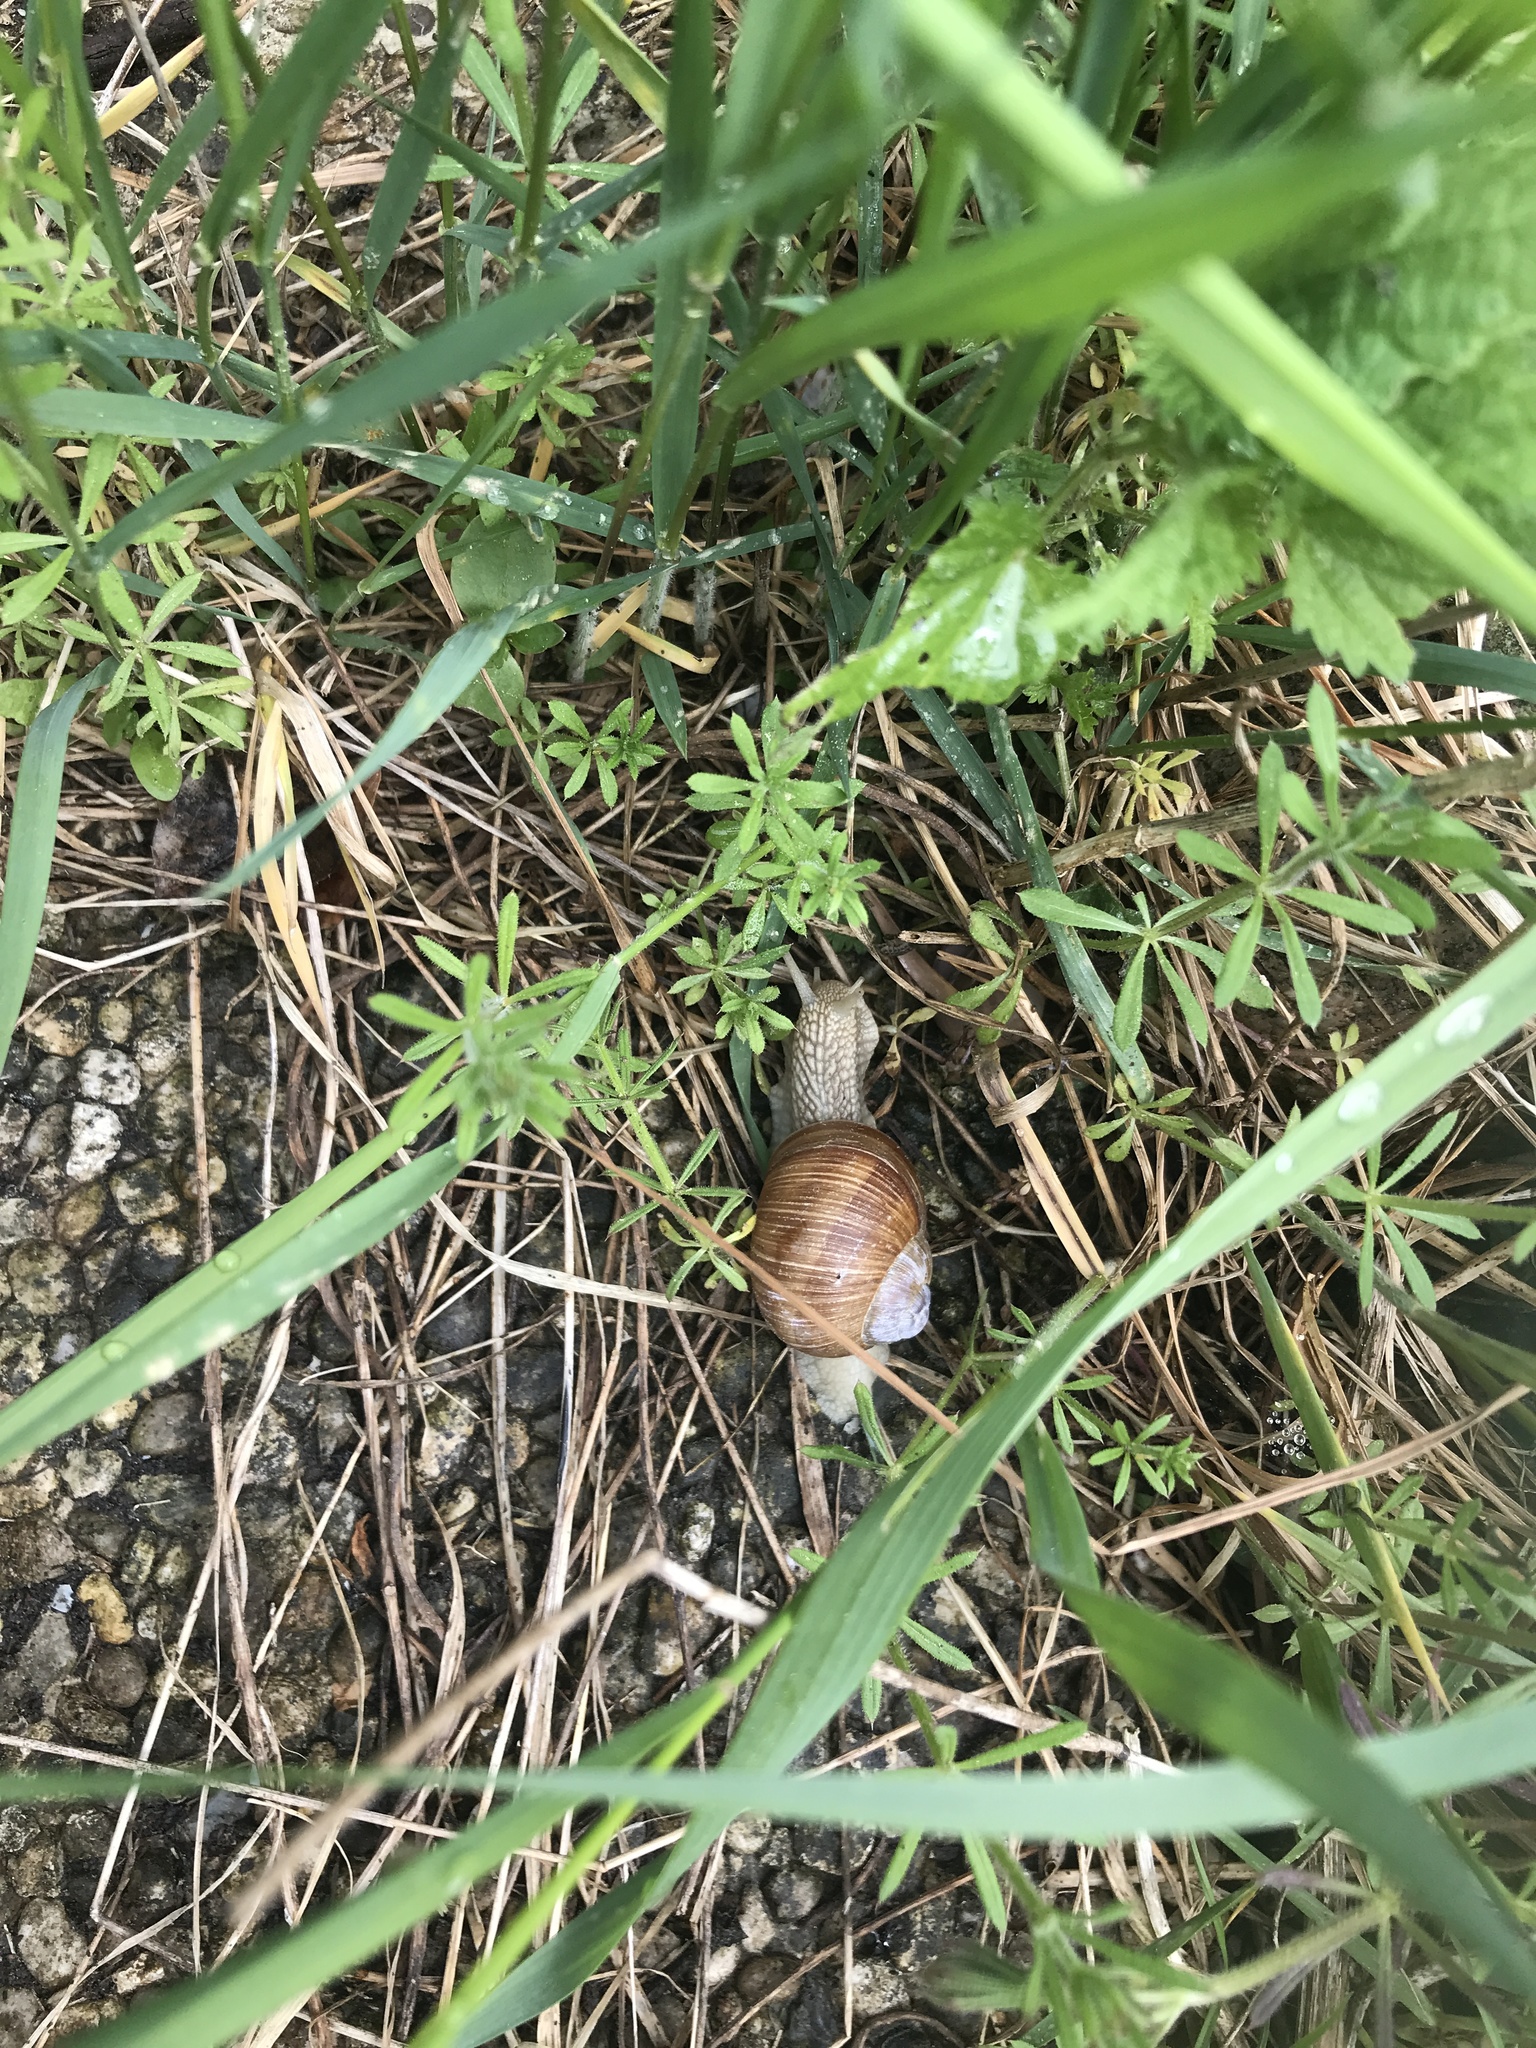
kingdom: Animalia
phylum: Mollusca
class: Gastropoda
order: Stylommatophora
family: Helicidae
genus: Helix
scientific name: Helix pomatia
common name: Roman snail
